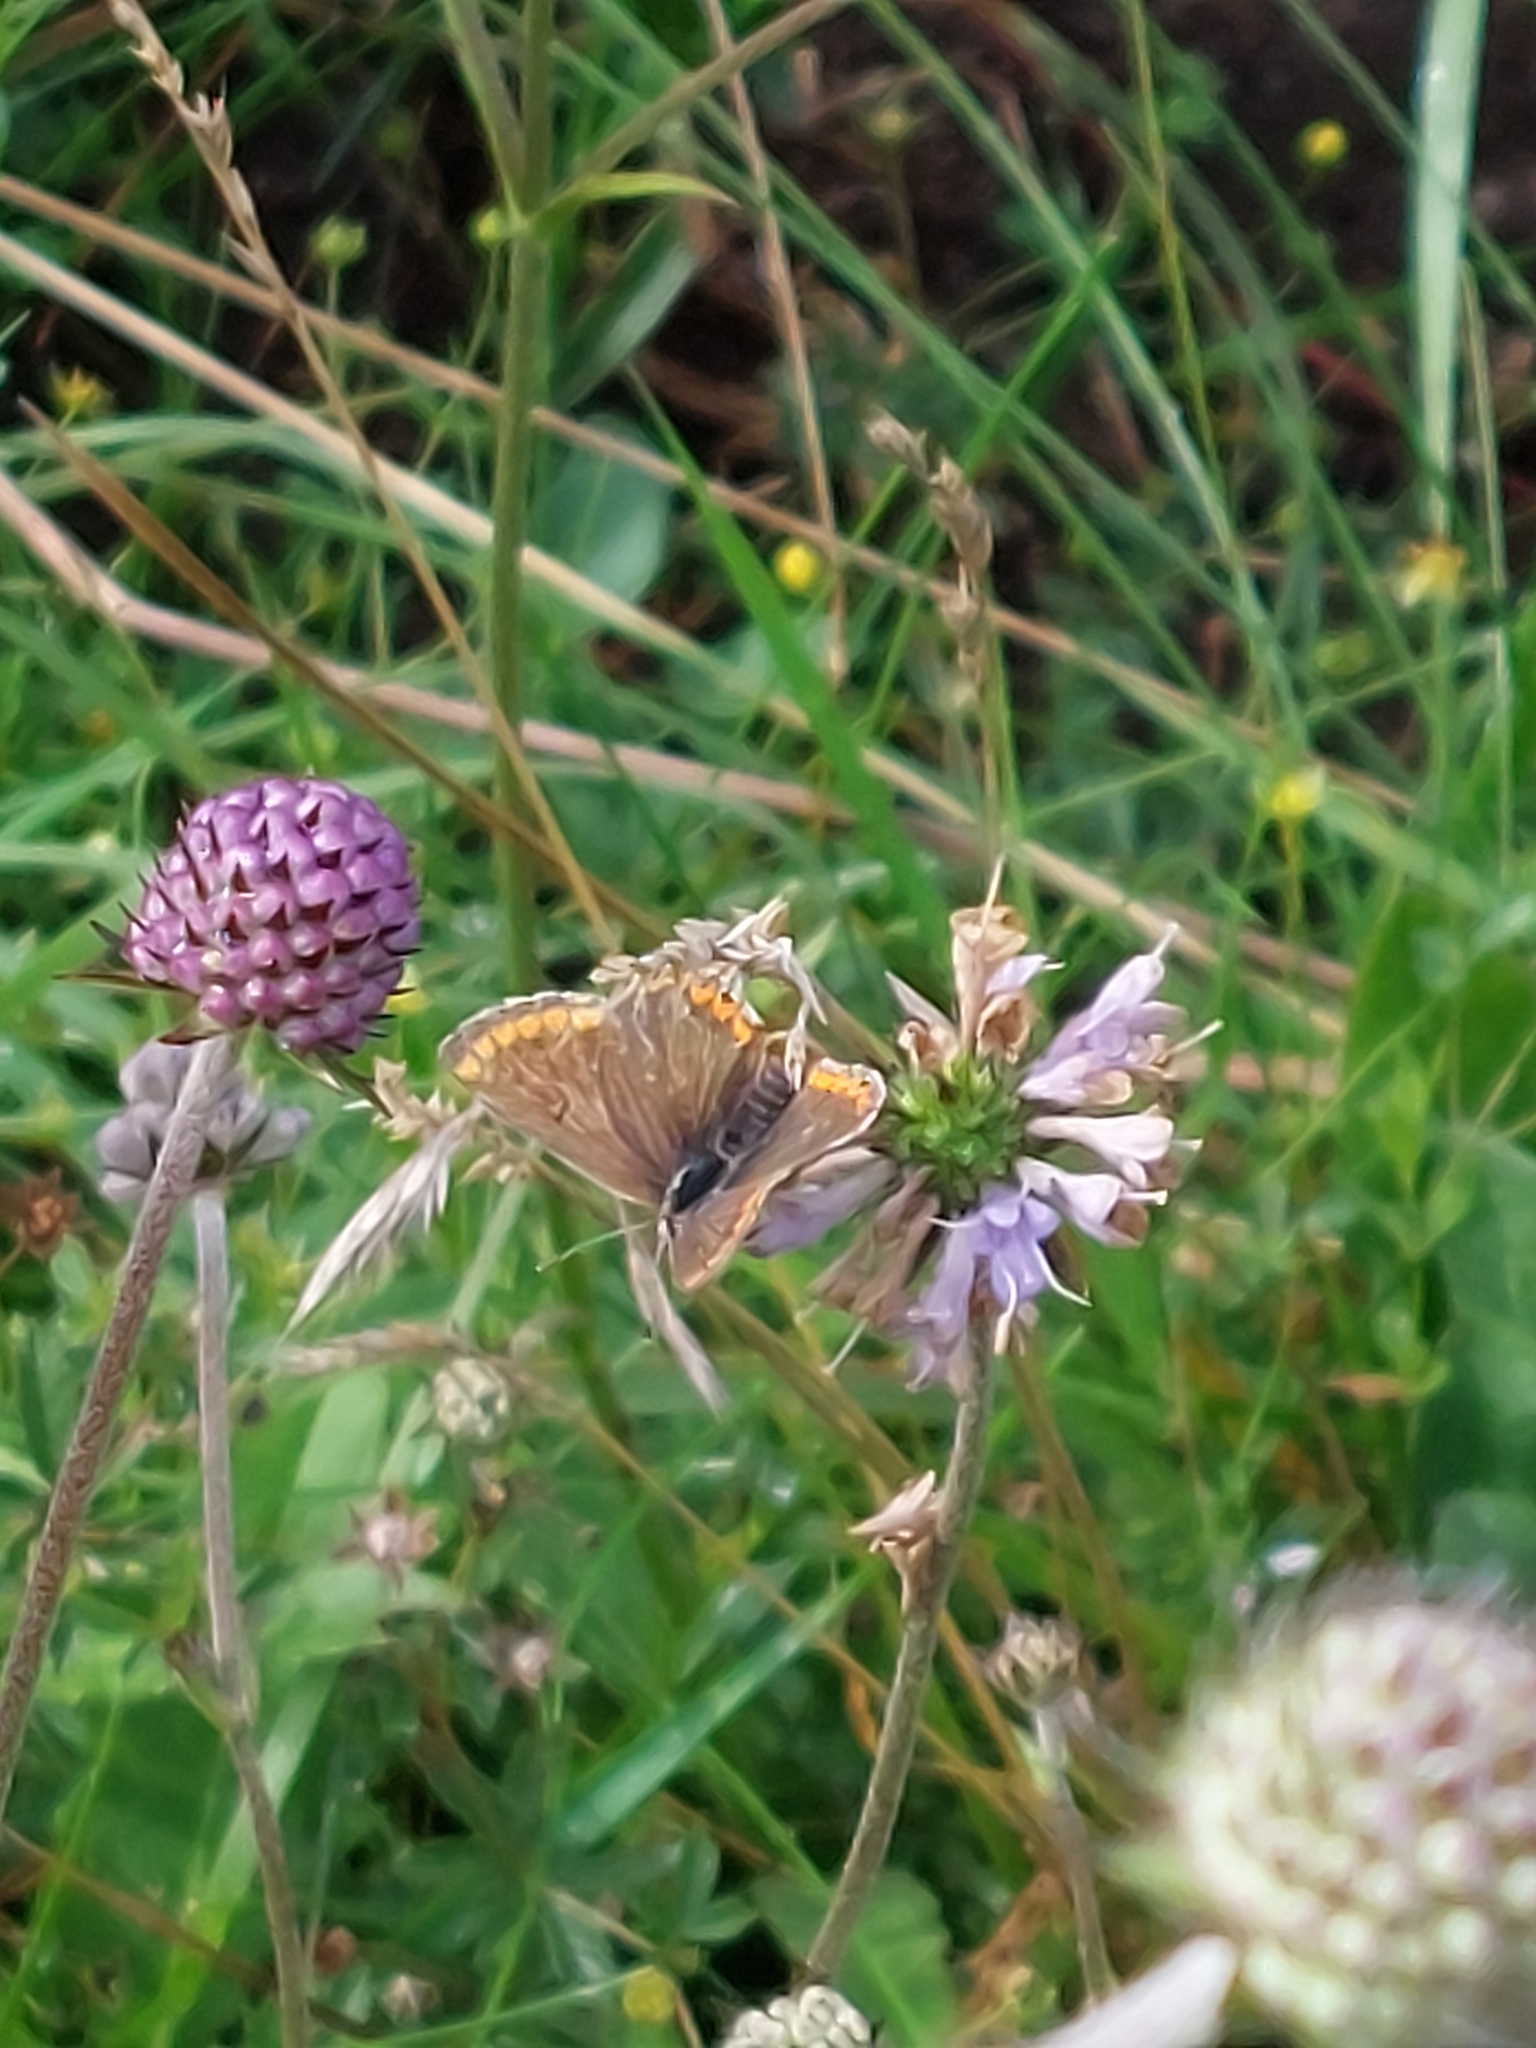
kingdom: Animalia
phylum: Arthropoda
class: Insecta
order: Lepidoptera
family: Lycaenidae
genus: Aricia
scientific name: Aricia agestis
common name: Brown argus
